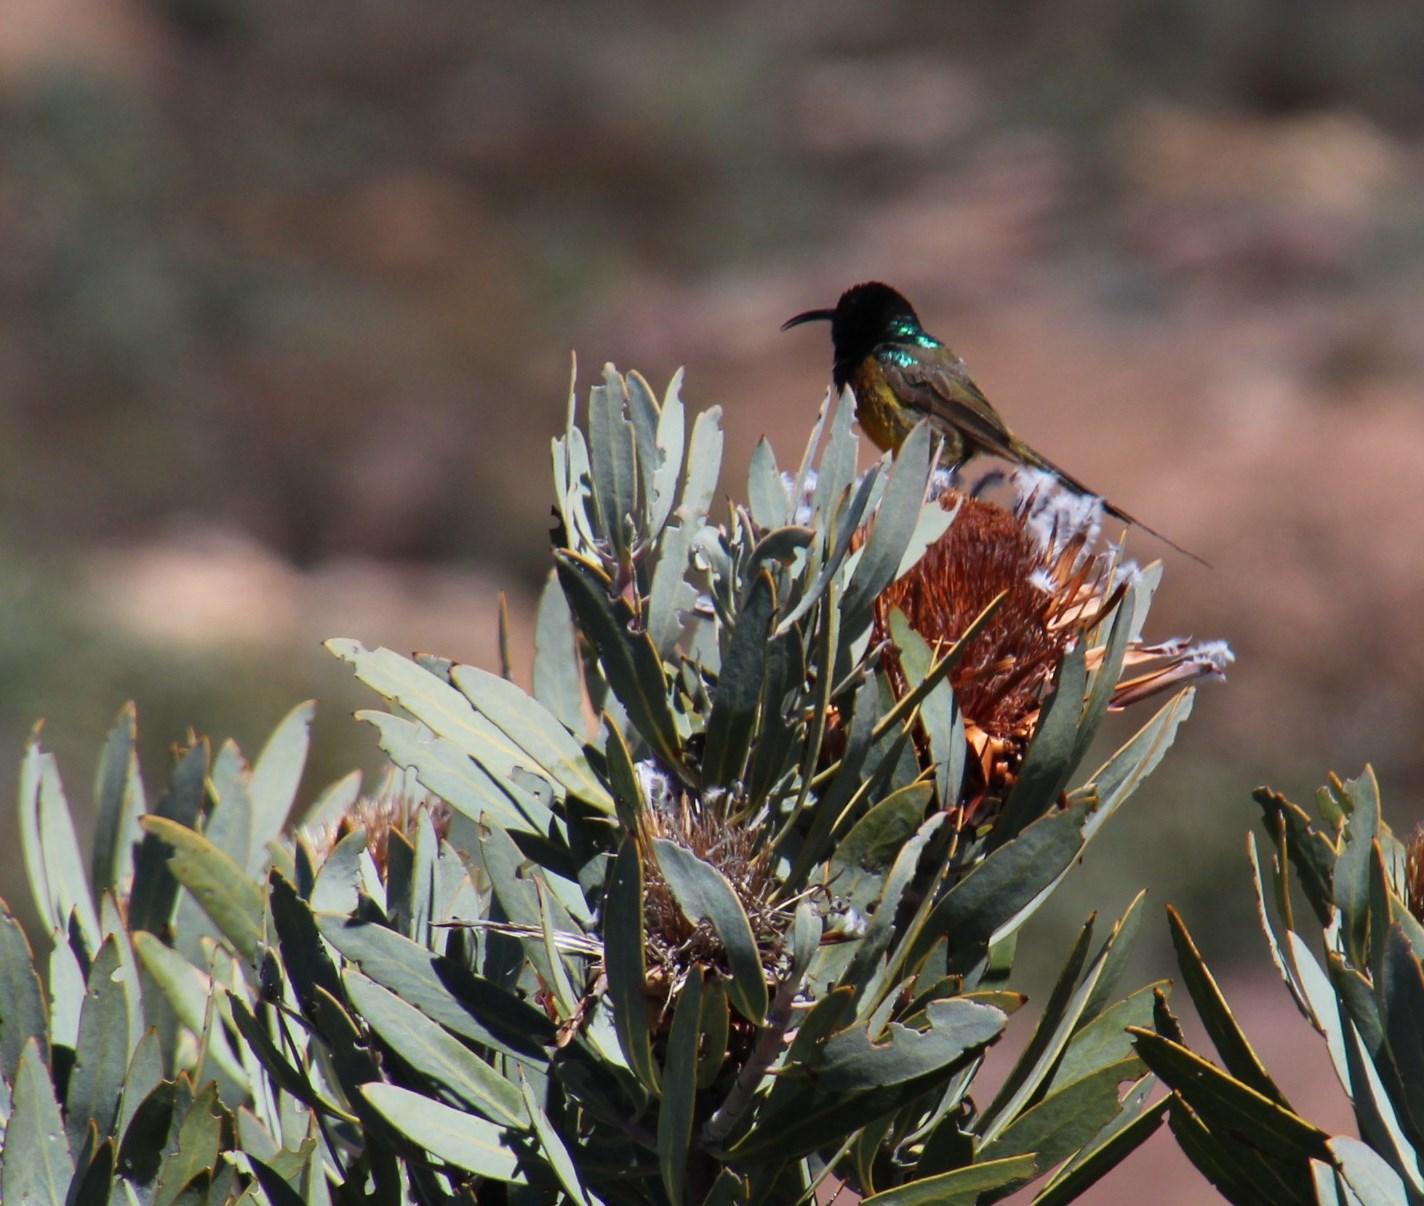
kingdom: Animalia
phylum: Chordata
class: Aves
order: Passeriformes
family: Nectariniidae
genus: Anthobaphes
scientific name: Anthobaphes violacea
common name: Orange-breasted sunbird
